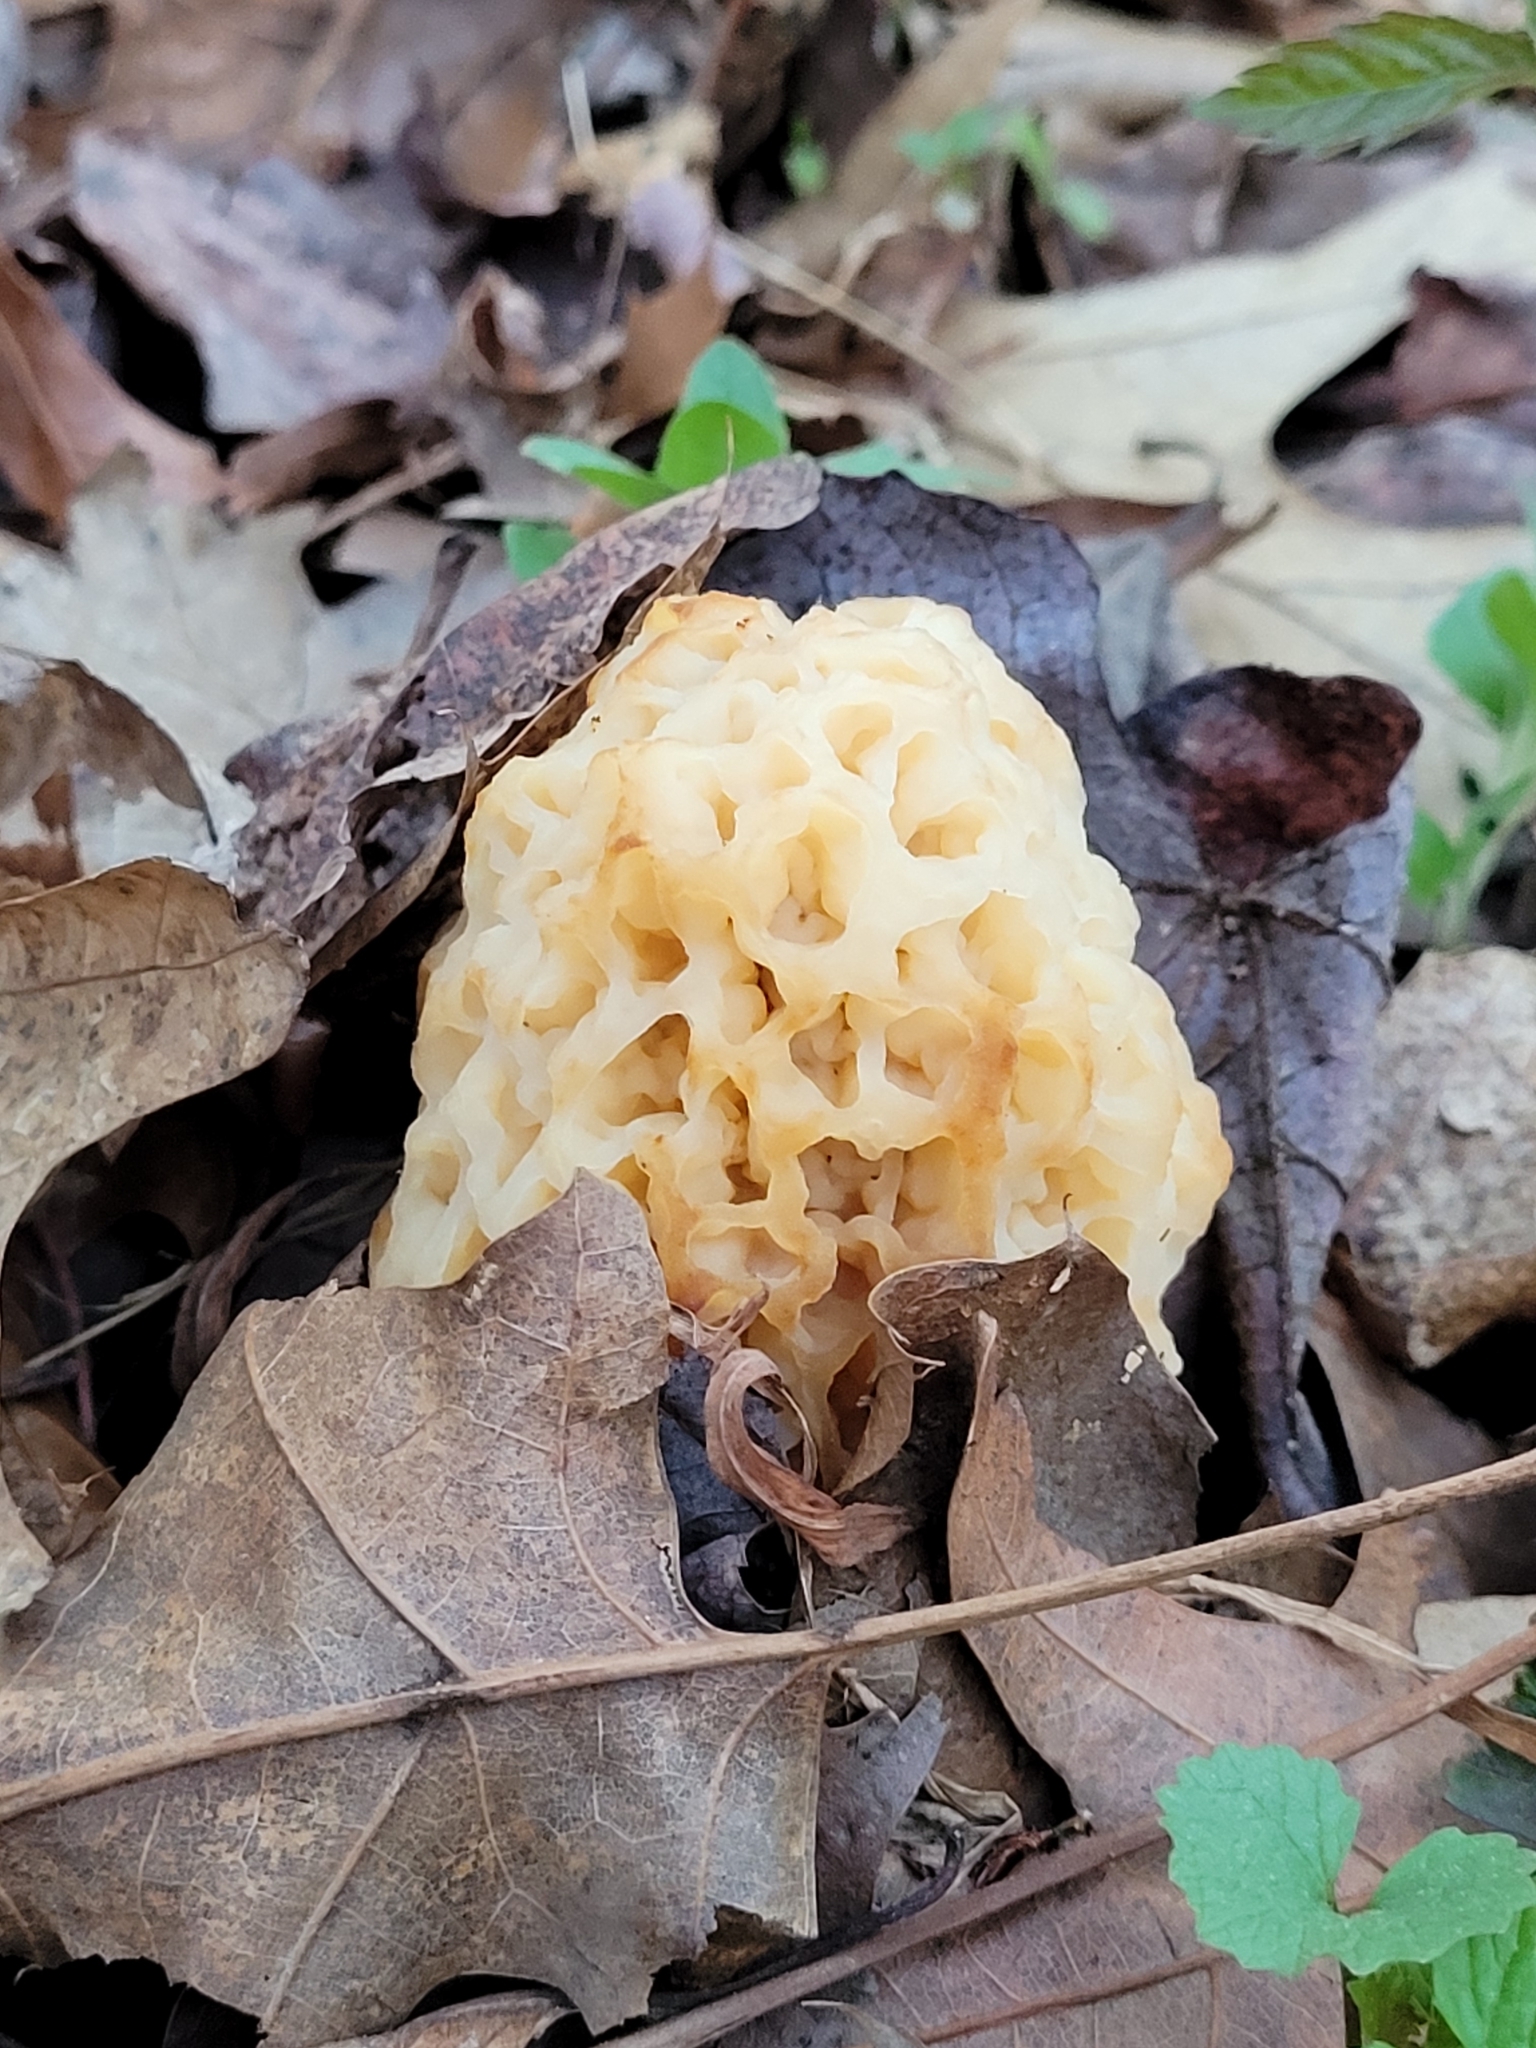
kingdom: Fungi
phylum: Ascomycota
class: Pezizomycetes
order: Pezizales
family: Morchellaceae
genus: Morchella
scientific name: Morchella americana
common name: White morel
